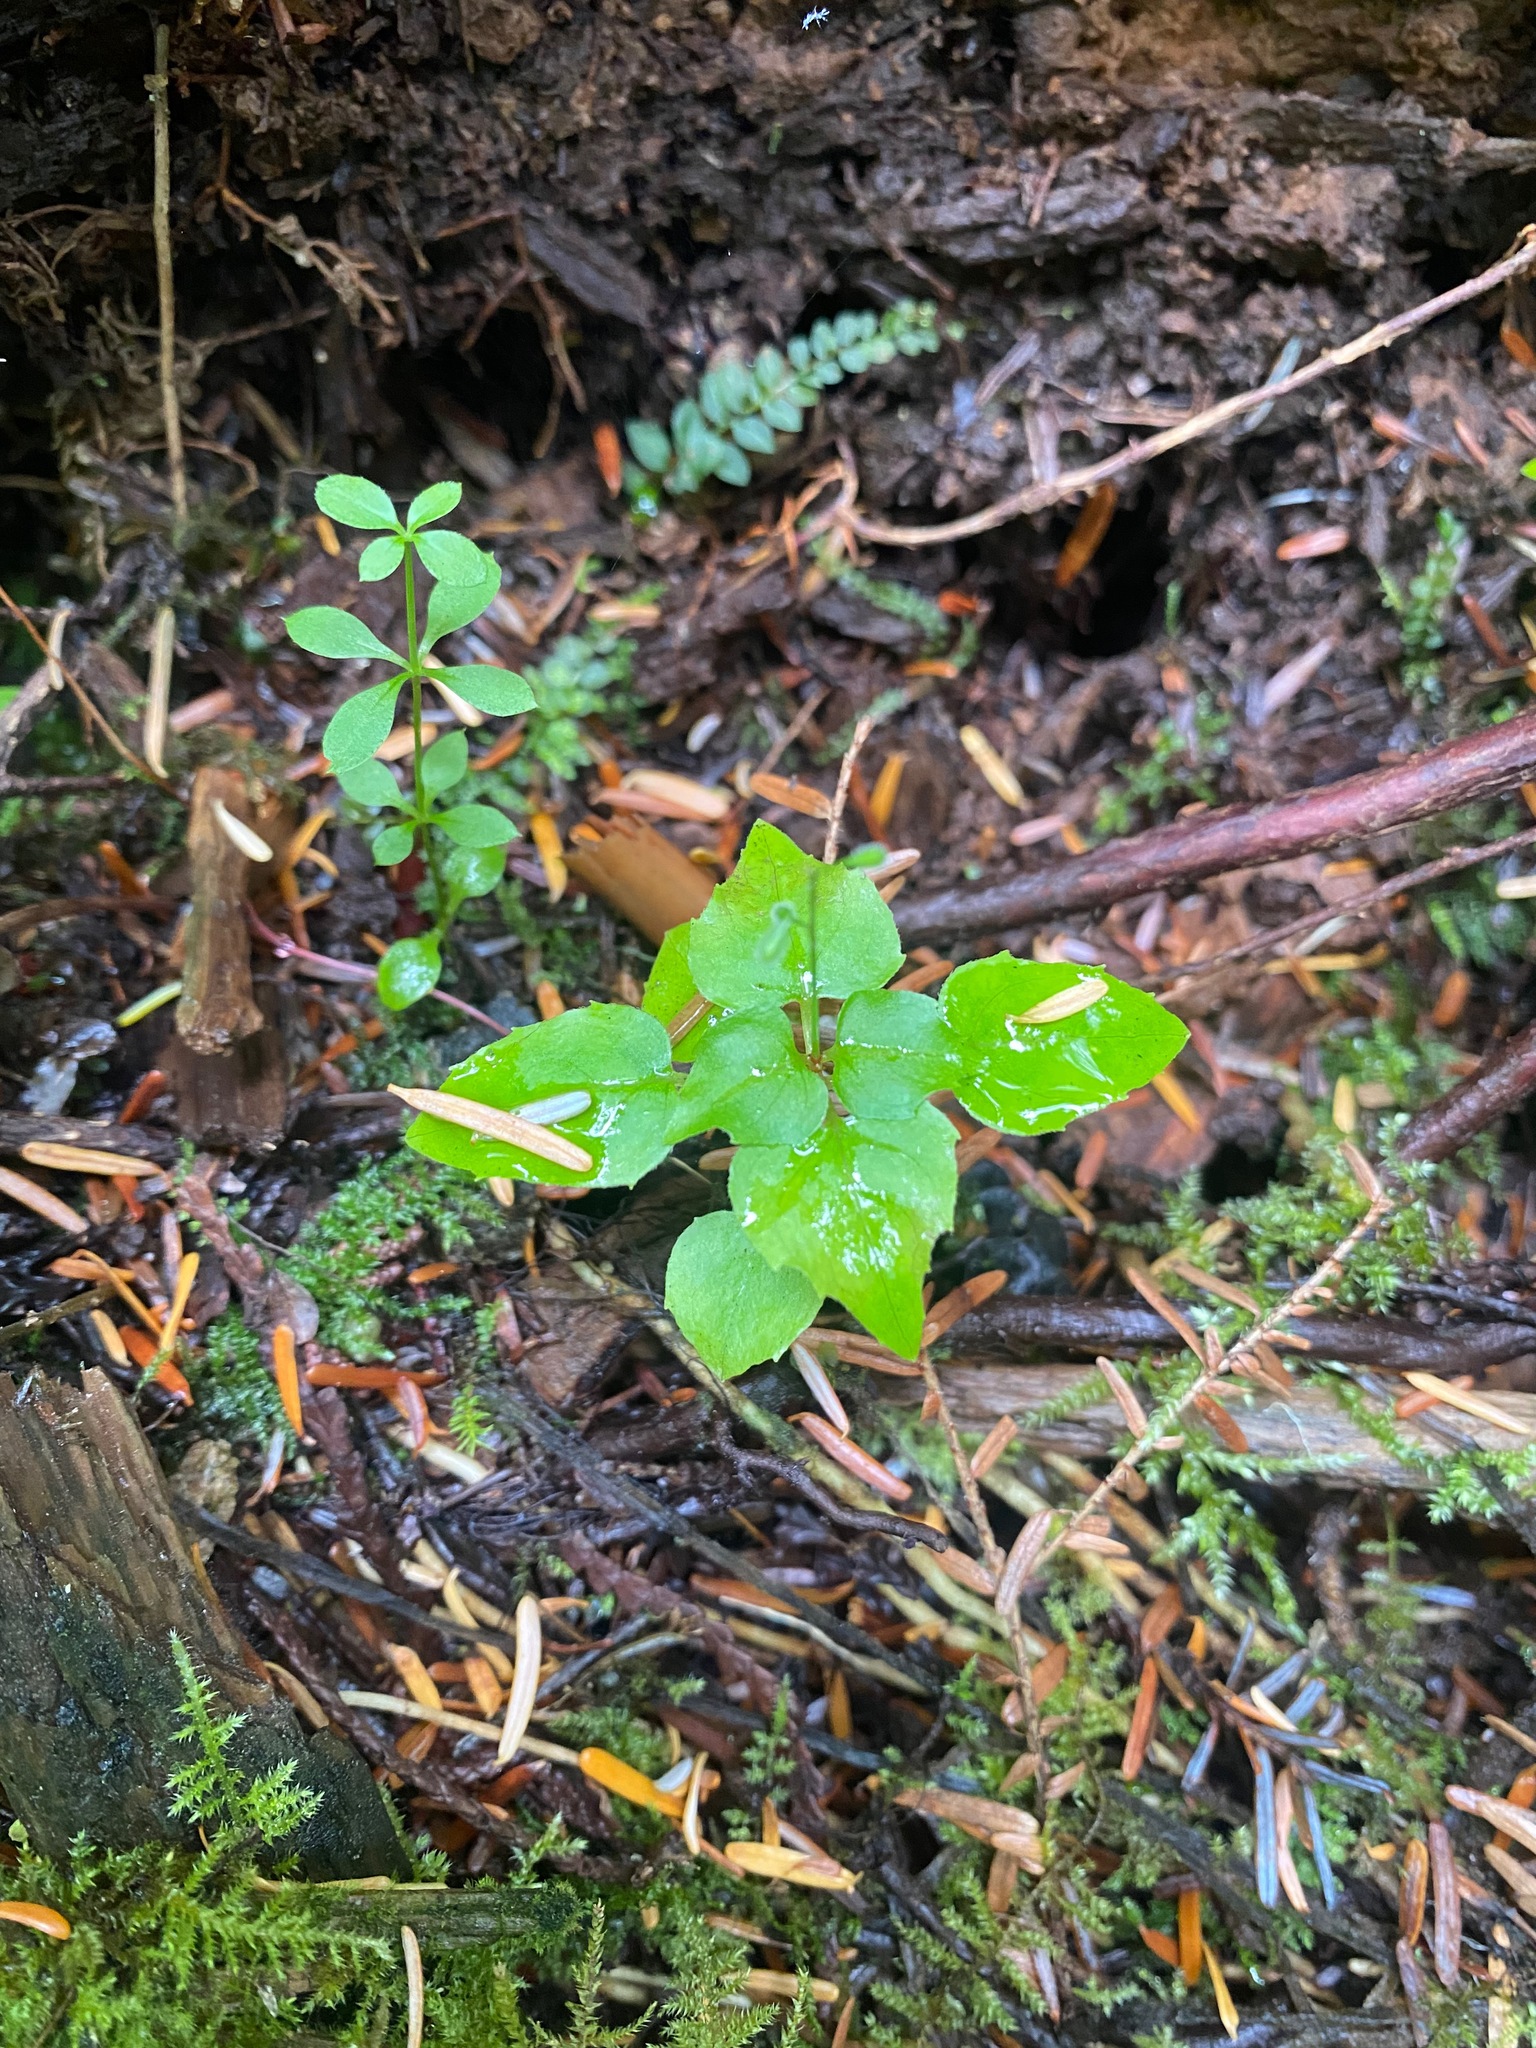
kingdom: Plantae
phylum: Tracheophyta
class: Magnoliopsida
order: Myrtales
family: Onagraceae
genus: Circaea
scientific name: Circaea alpina
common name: Alpine enchanter's-nightshade
